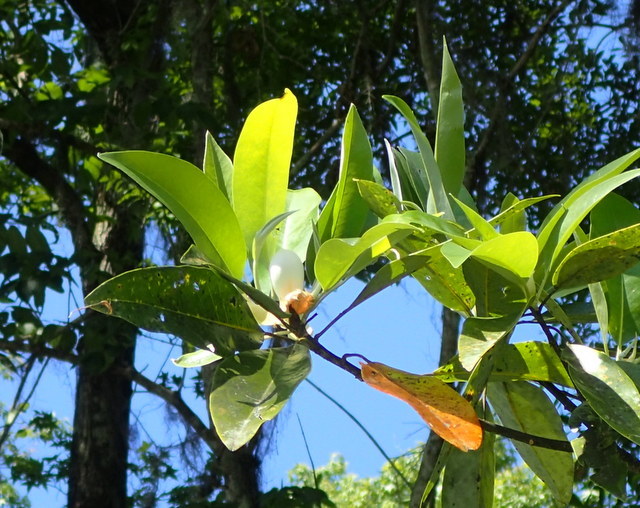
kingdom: Plantae
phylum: Tracheophyta
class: Magnoliopsida
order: Magnoliales
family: Magnoliaceae
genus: Magnolia
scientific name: Magnolia virginiana
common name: Swamp bay
